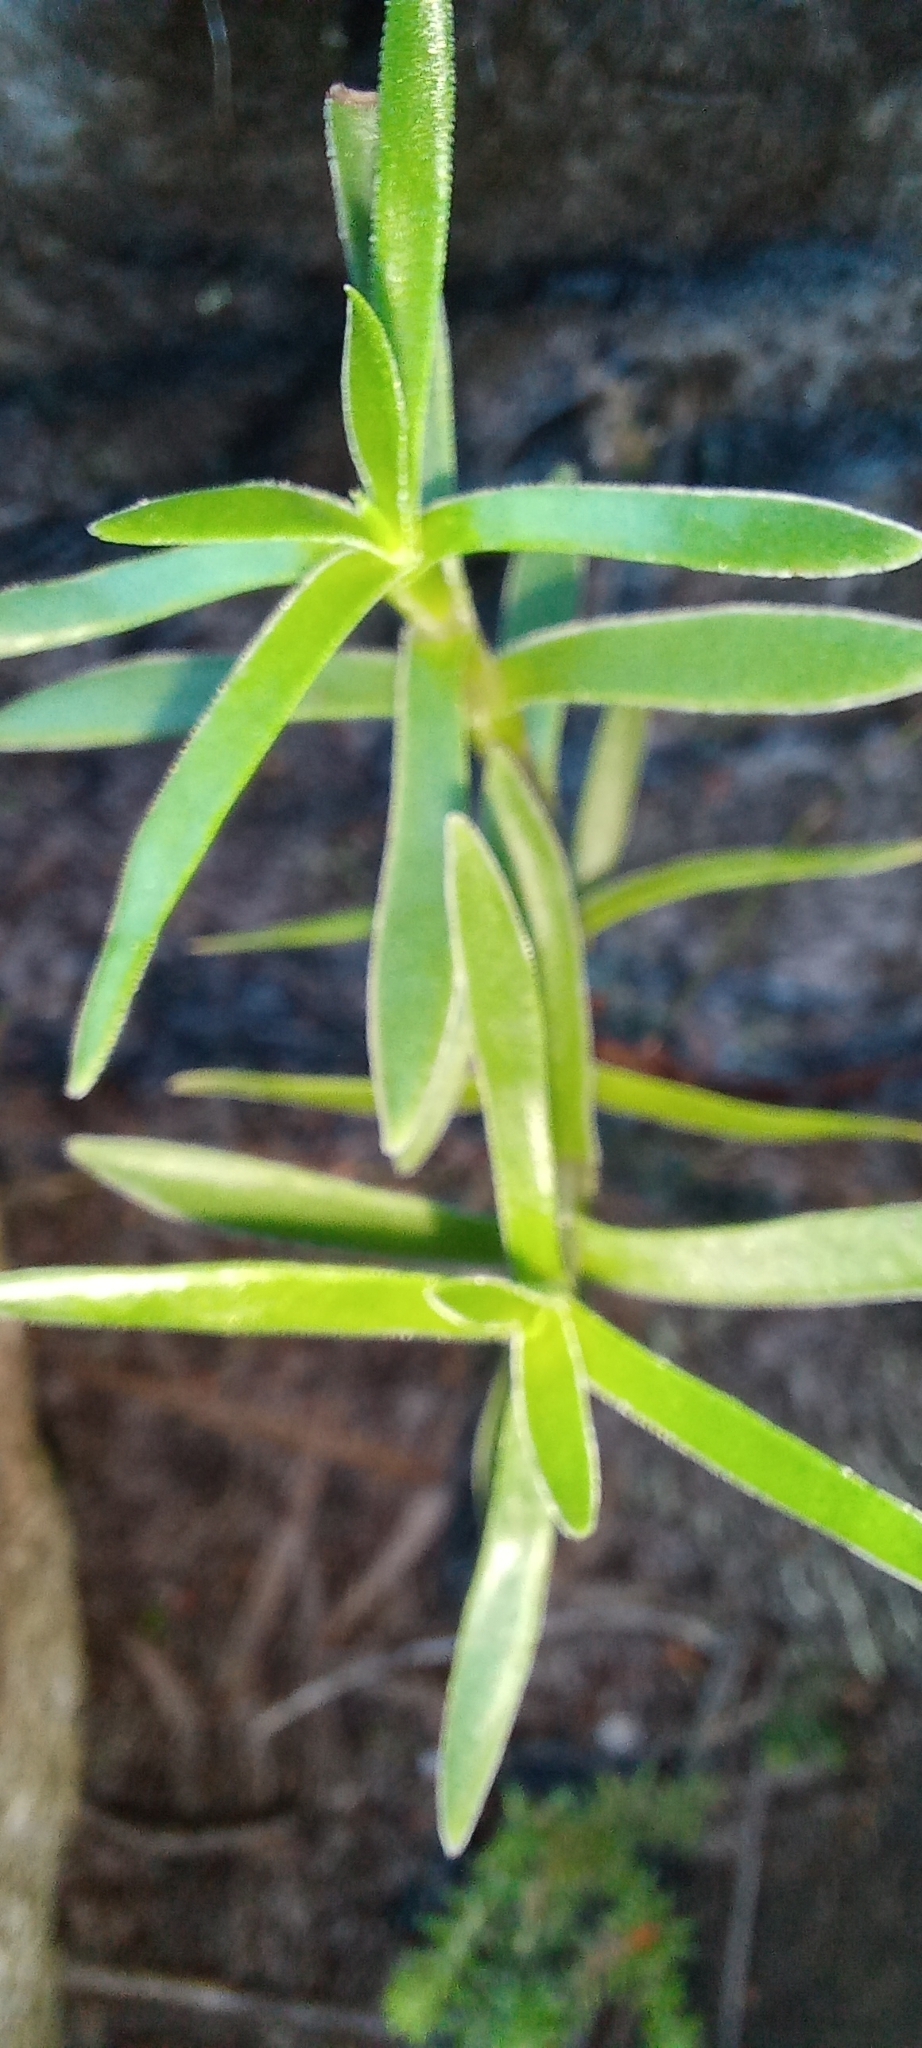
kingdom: Plantae
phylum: Tracheophyta
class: Magnoliopsida
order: Saxifragales
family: Crassulaceae
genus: Crassula
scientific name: Crassula fascicularis
